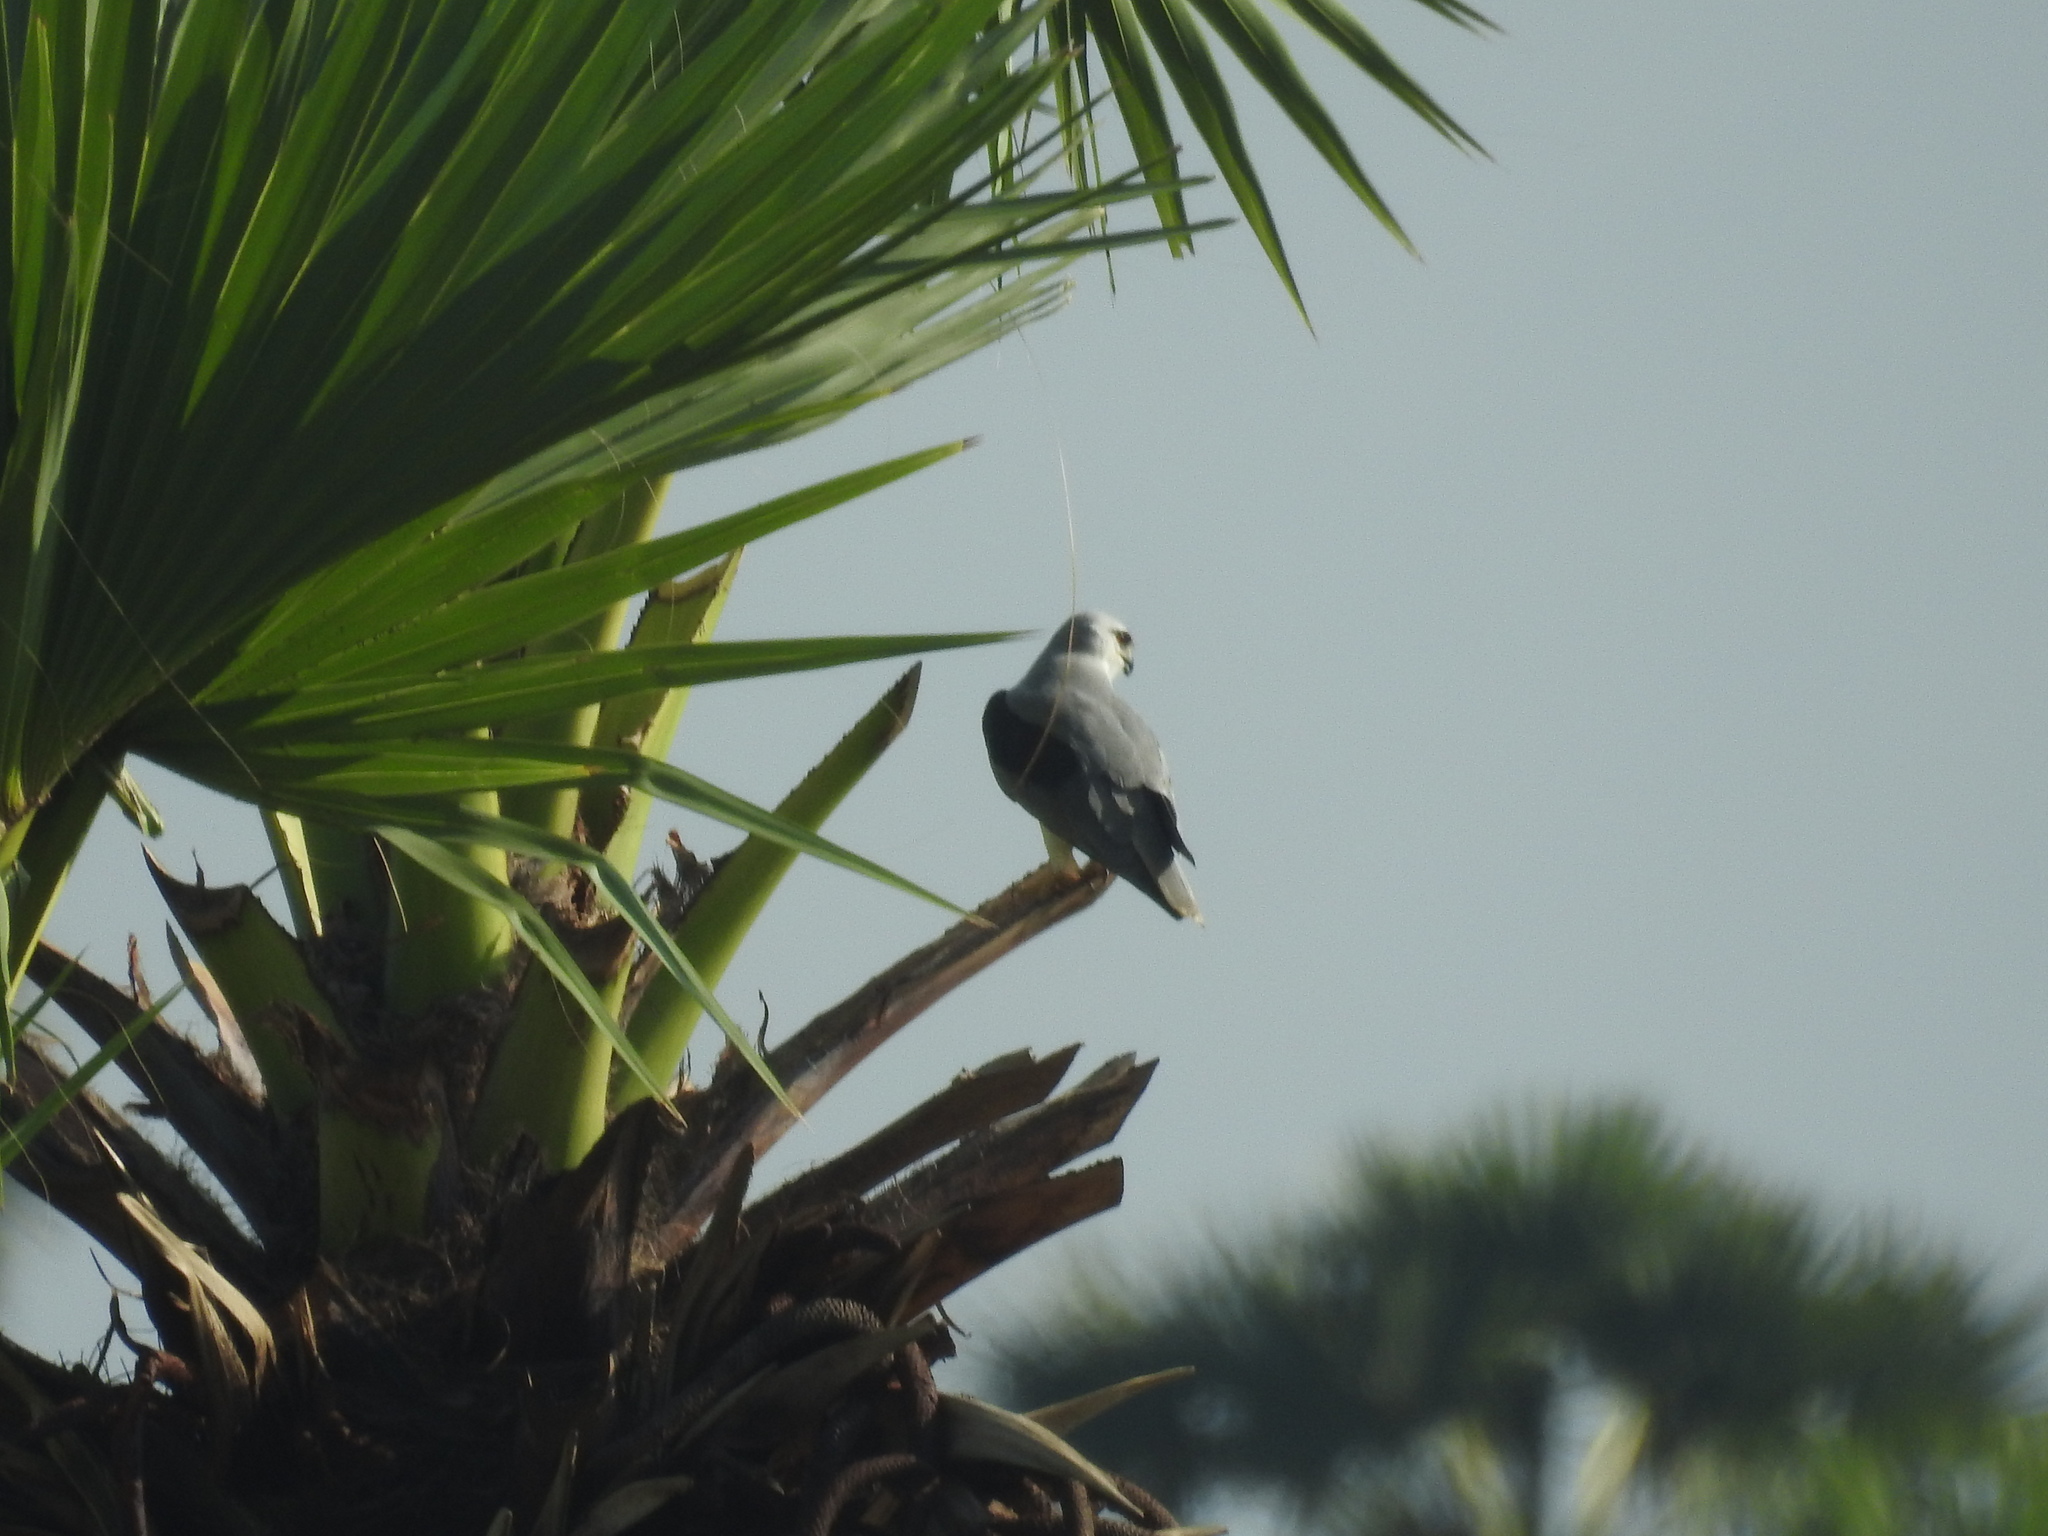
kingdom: Animalia
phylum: Chordata
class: Aves
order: Accipitriformes
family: Accipitridae
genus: Elanus
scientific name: Elanus caeruleus
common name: Black-winged kite
